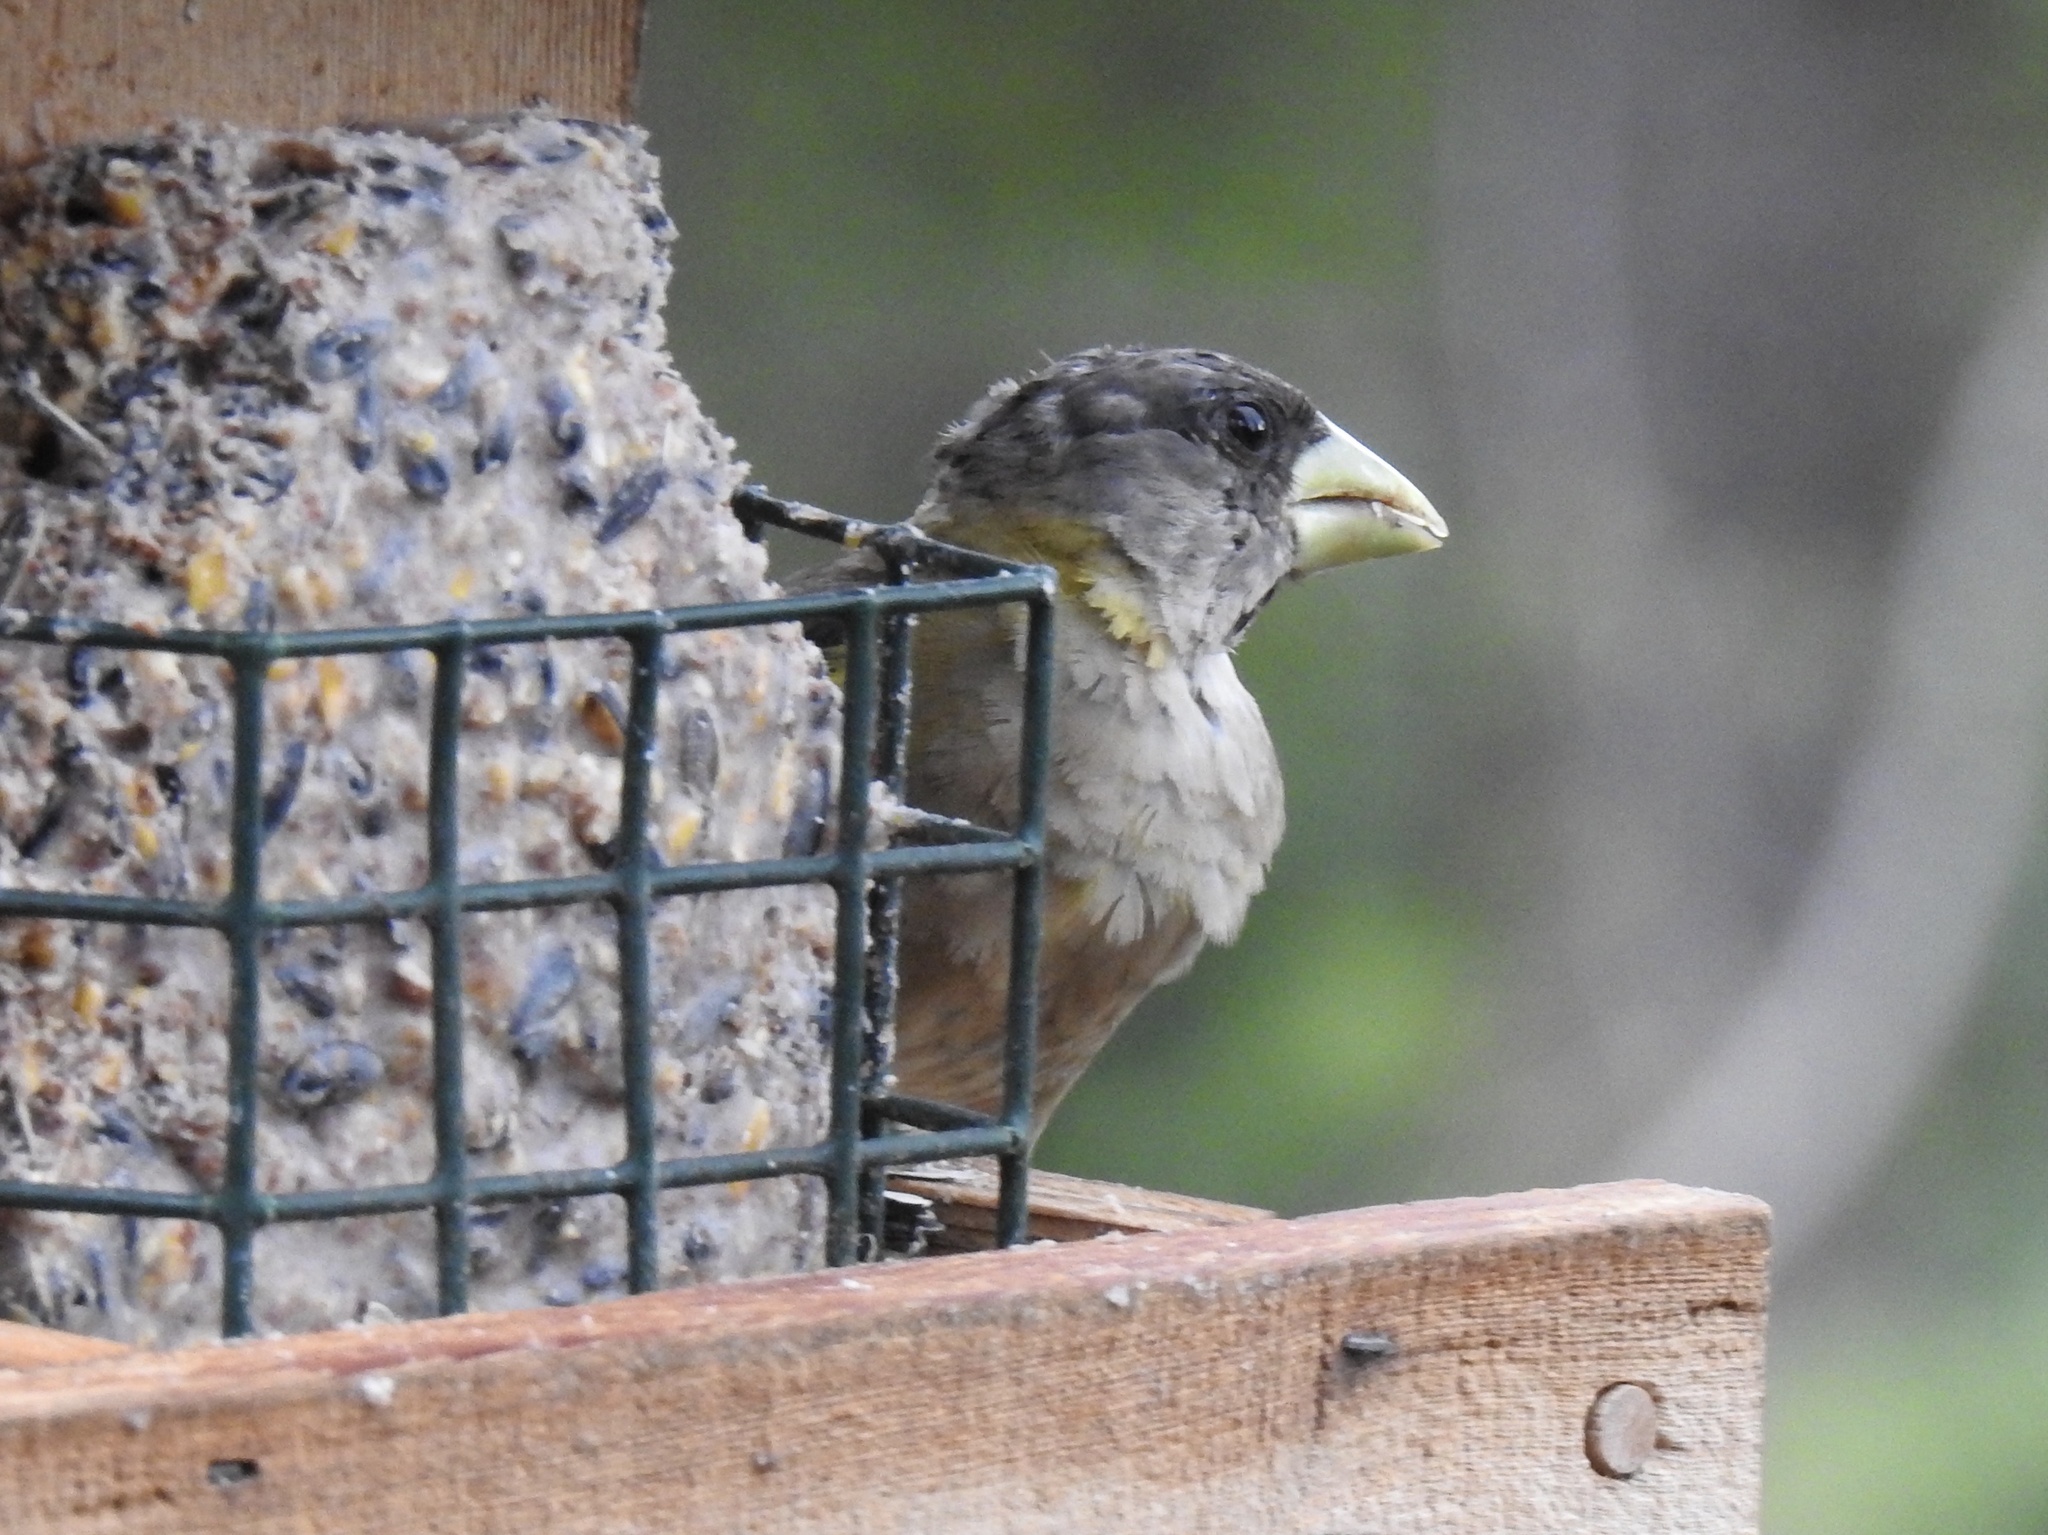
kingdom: Animalia
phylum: Chordata
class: Aves
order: Passeriformes
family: Fringillidae
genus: Hesperiphona
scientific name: Hesperiphona vespertina
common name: Evening grosbeak
